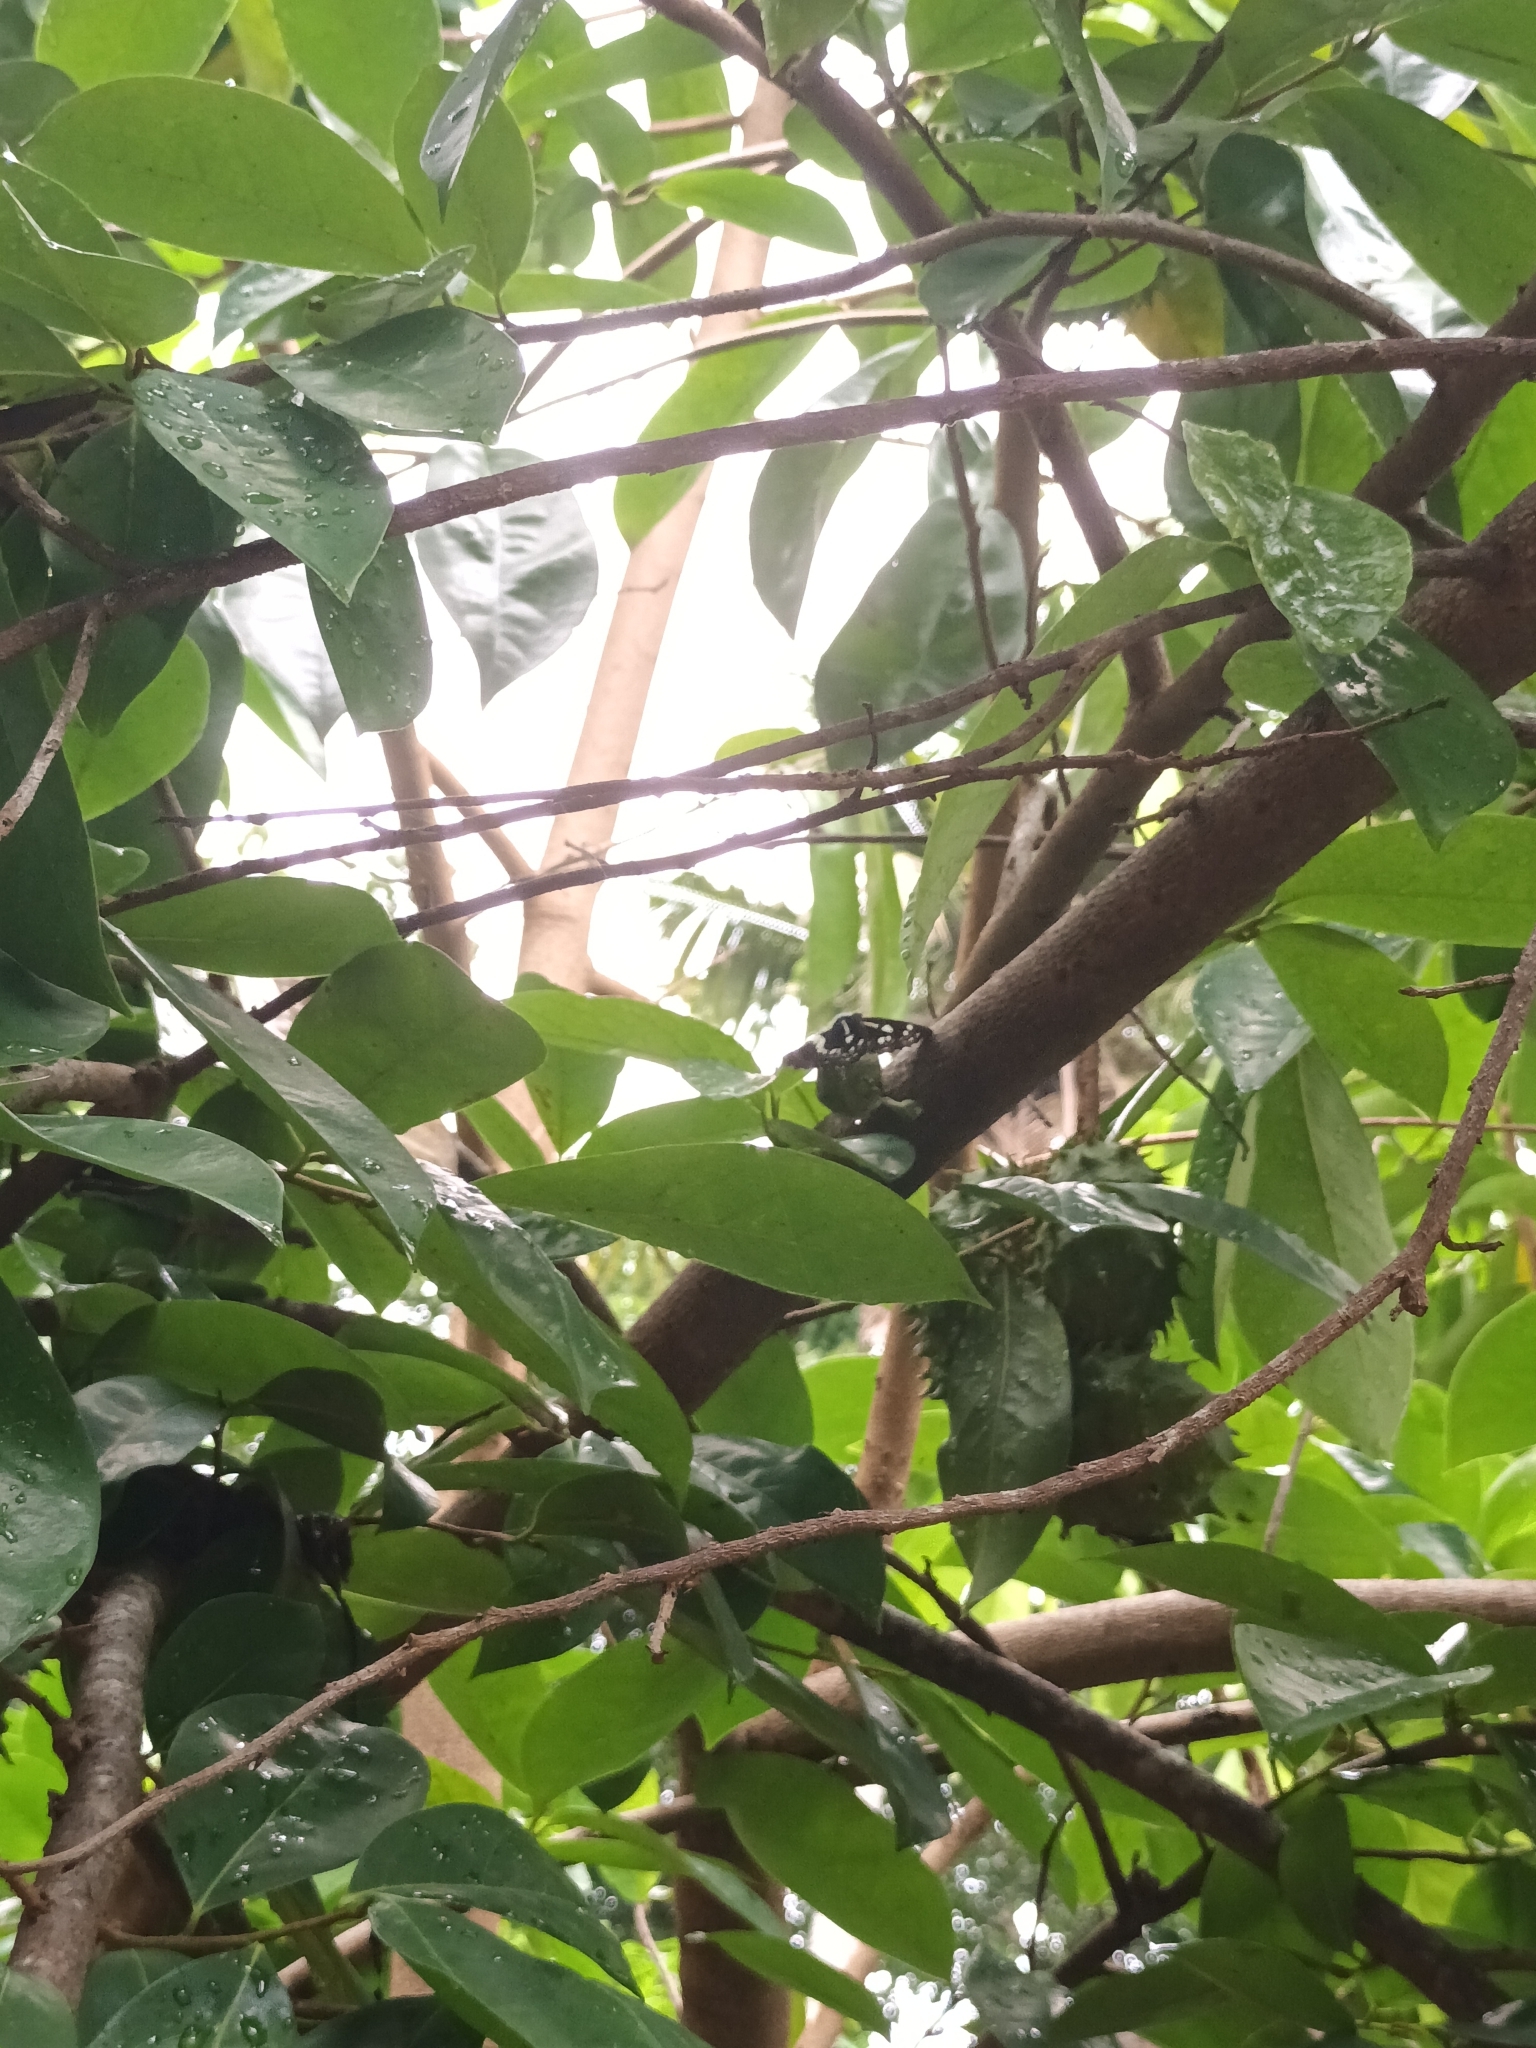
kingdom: Animalia
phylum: Arthropoda
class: Insecta
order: Lepidoptera
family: Nymphalidae
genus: Neptis
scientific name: Neptis jumbah
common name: Chestnut-streaked sailer
